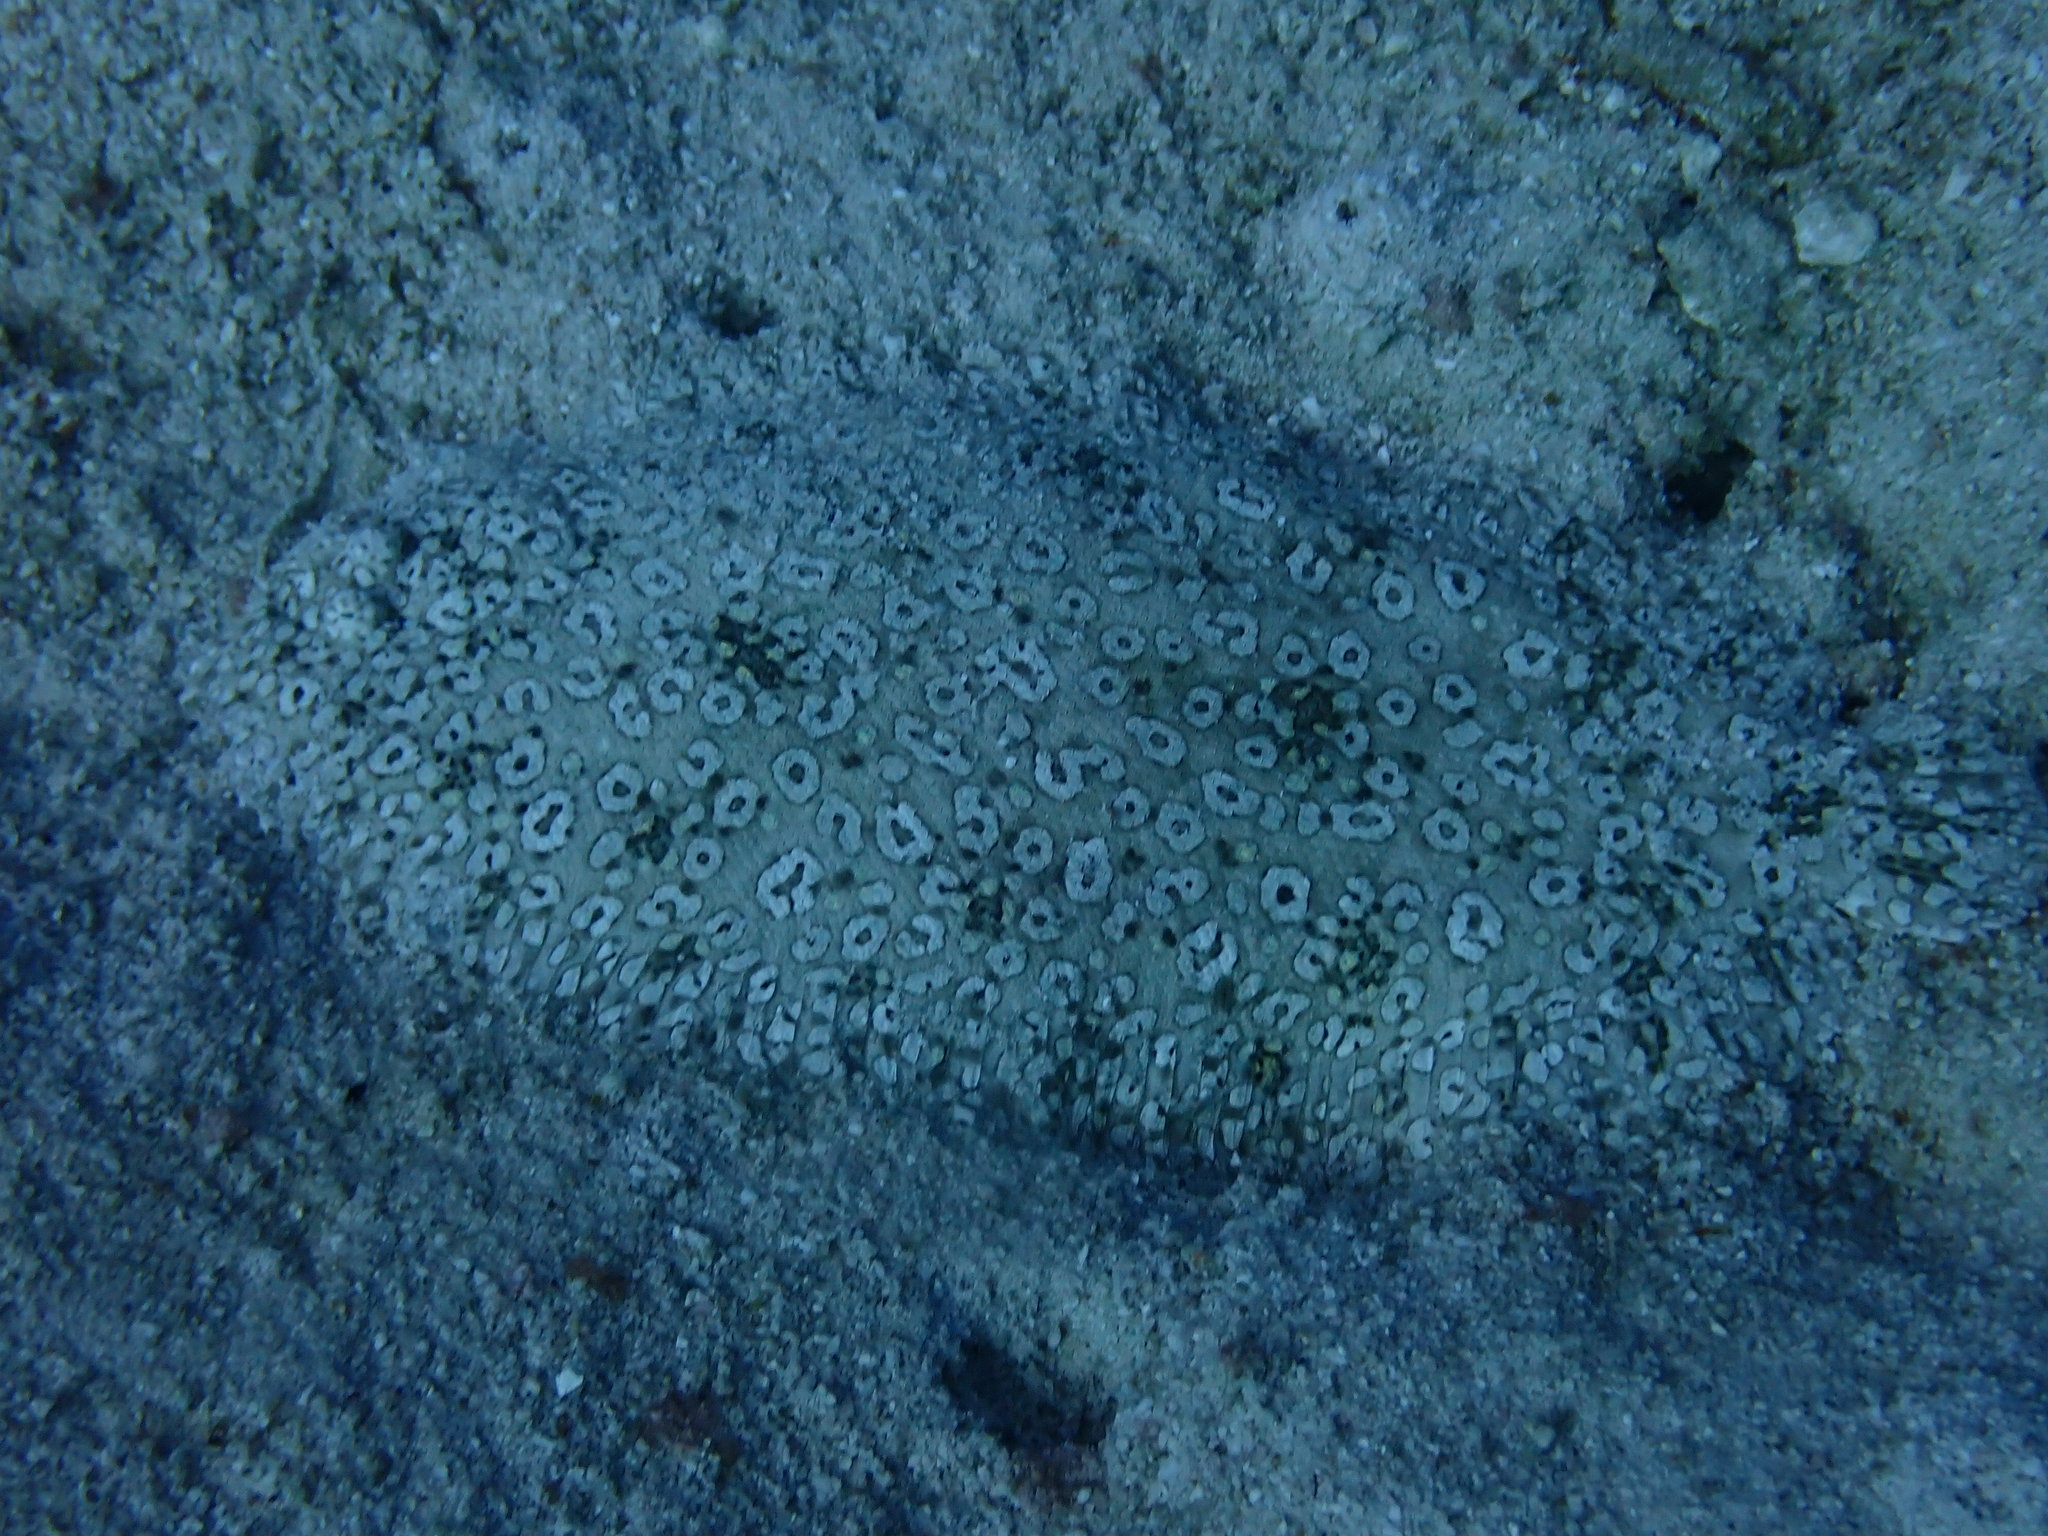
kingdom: Animalia
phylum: Chordata
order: Pleuronectiformes
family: Soleidae
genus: Pardachirus
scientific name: Pardachirus pavoninus
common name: Ocellated sole
